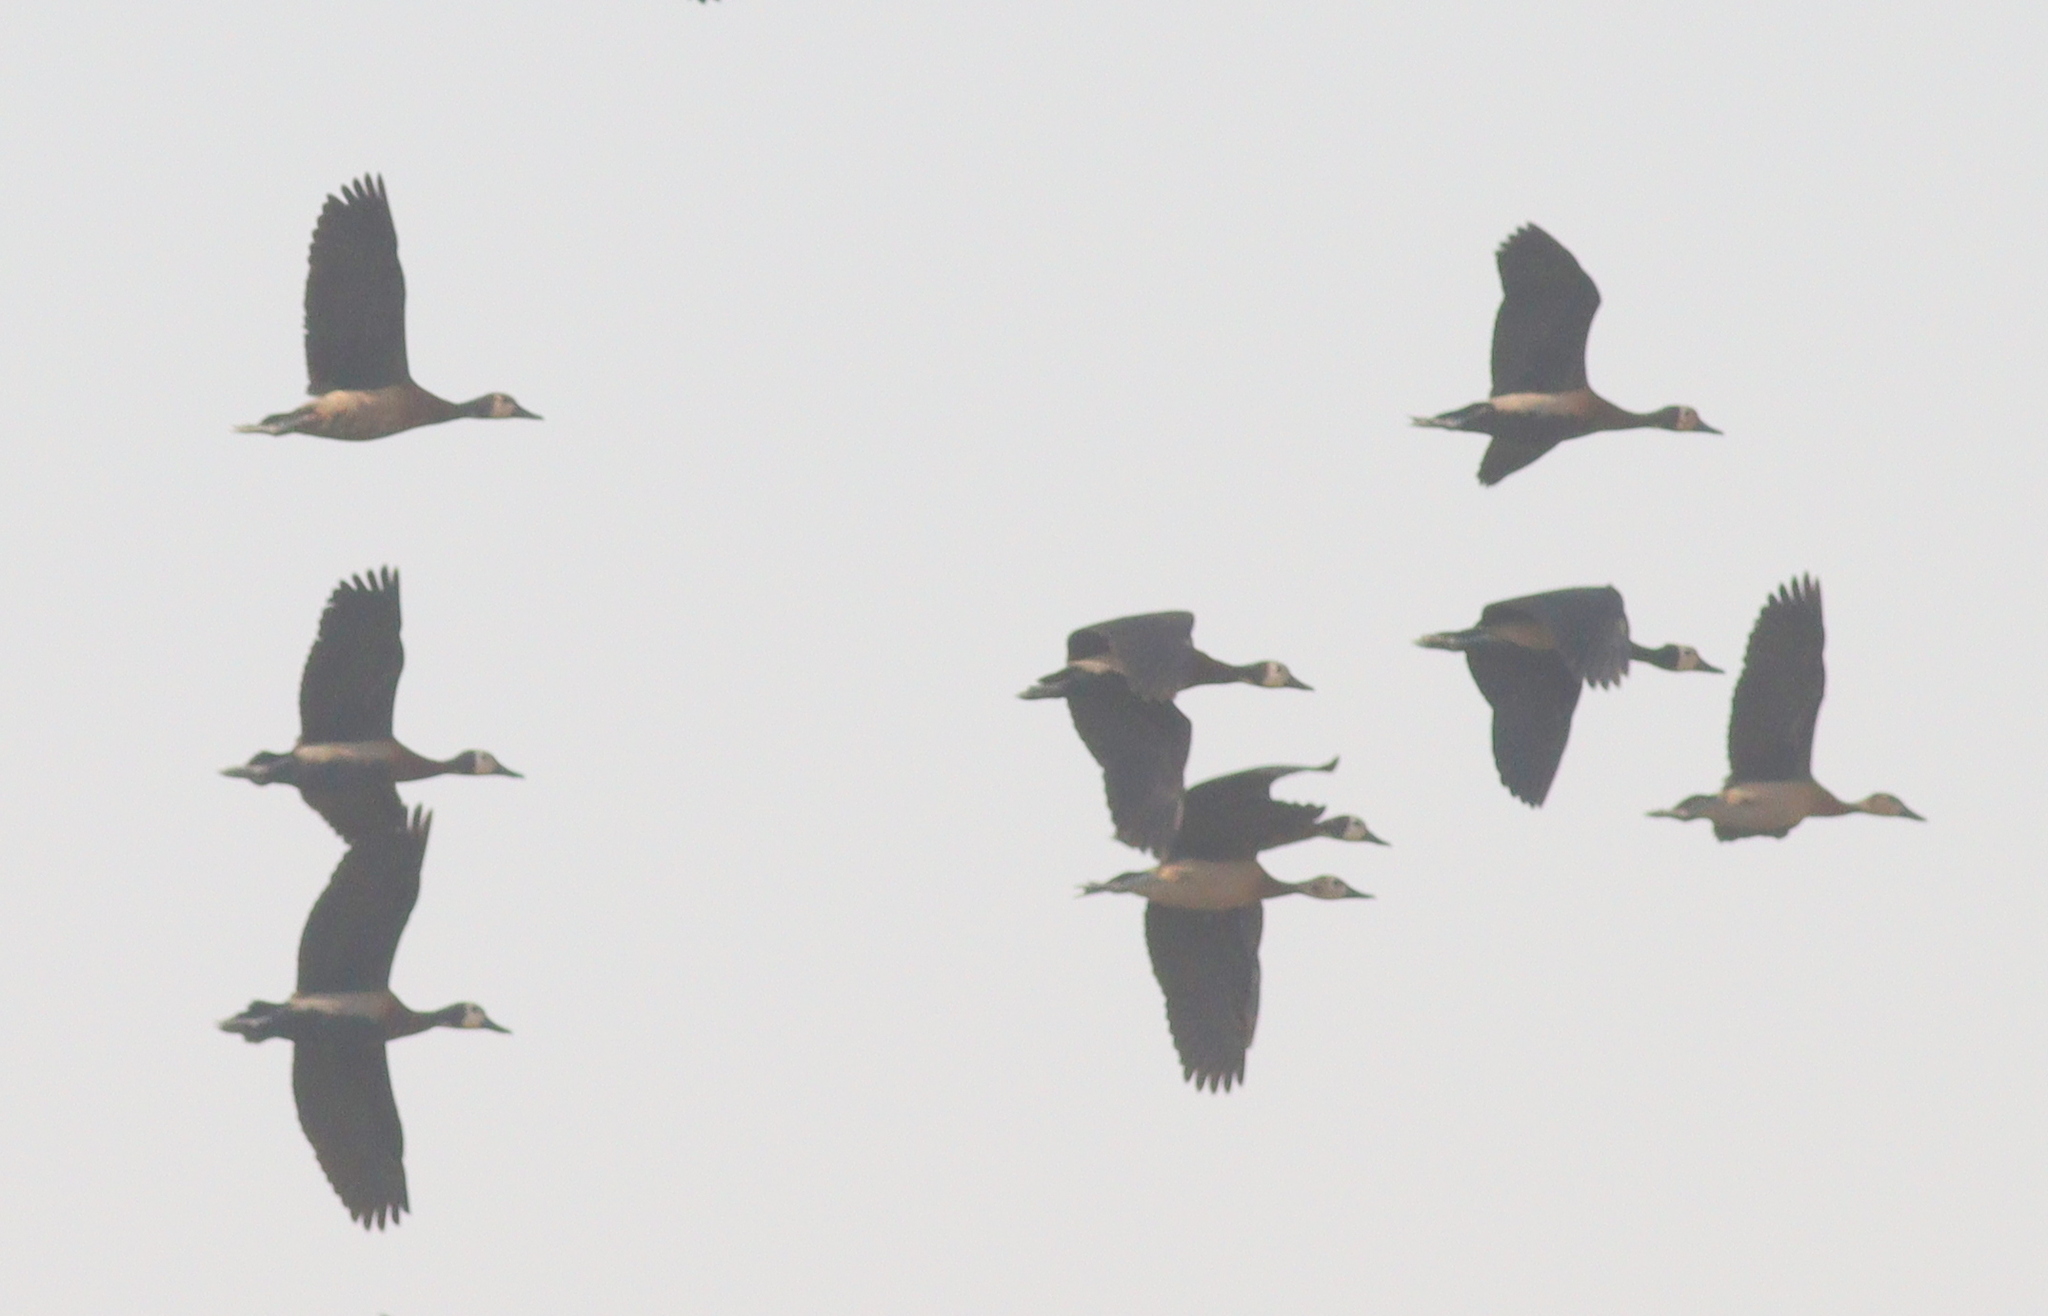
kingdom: Animalia
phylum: Chordata
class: Aves
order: Anseriformes
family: Anatidae
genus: Dendrocygna
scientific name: Dendrocygna viduata
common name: White-faced whistling duck
